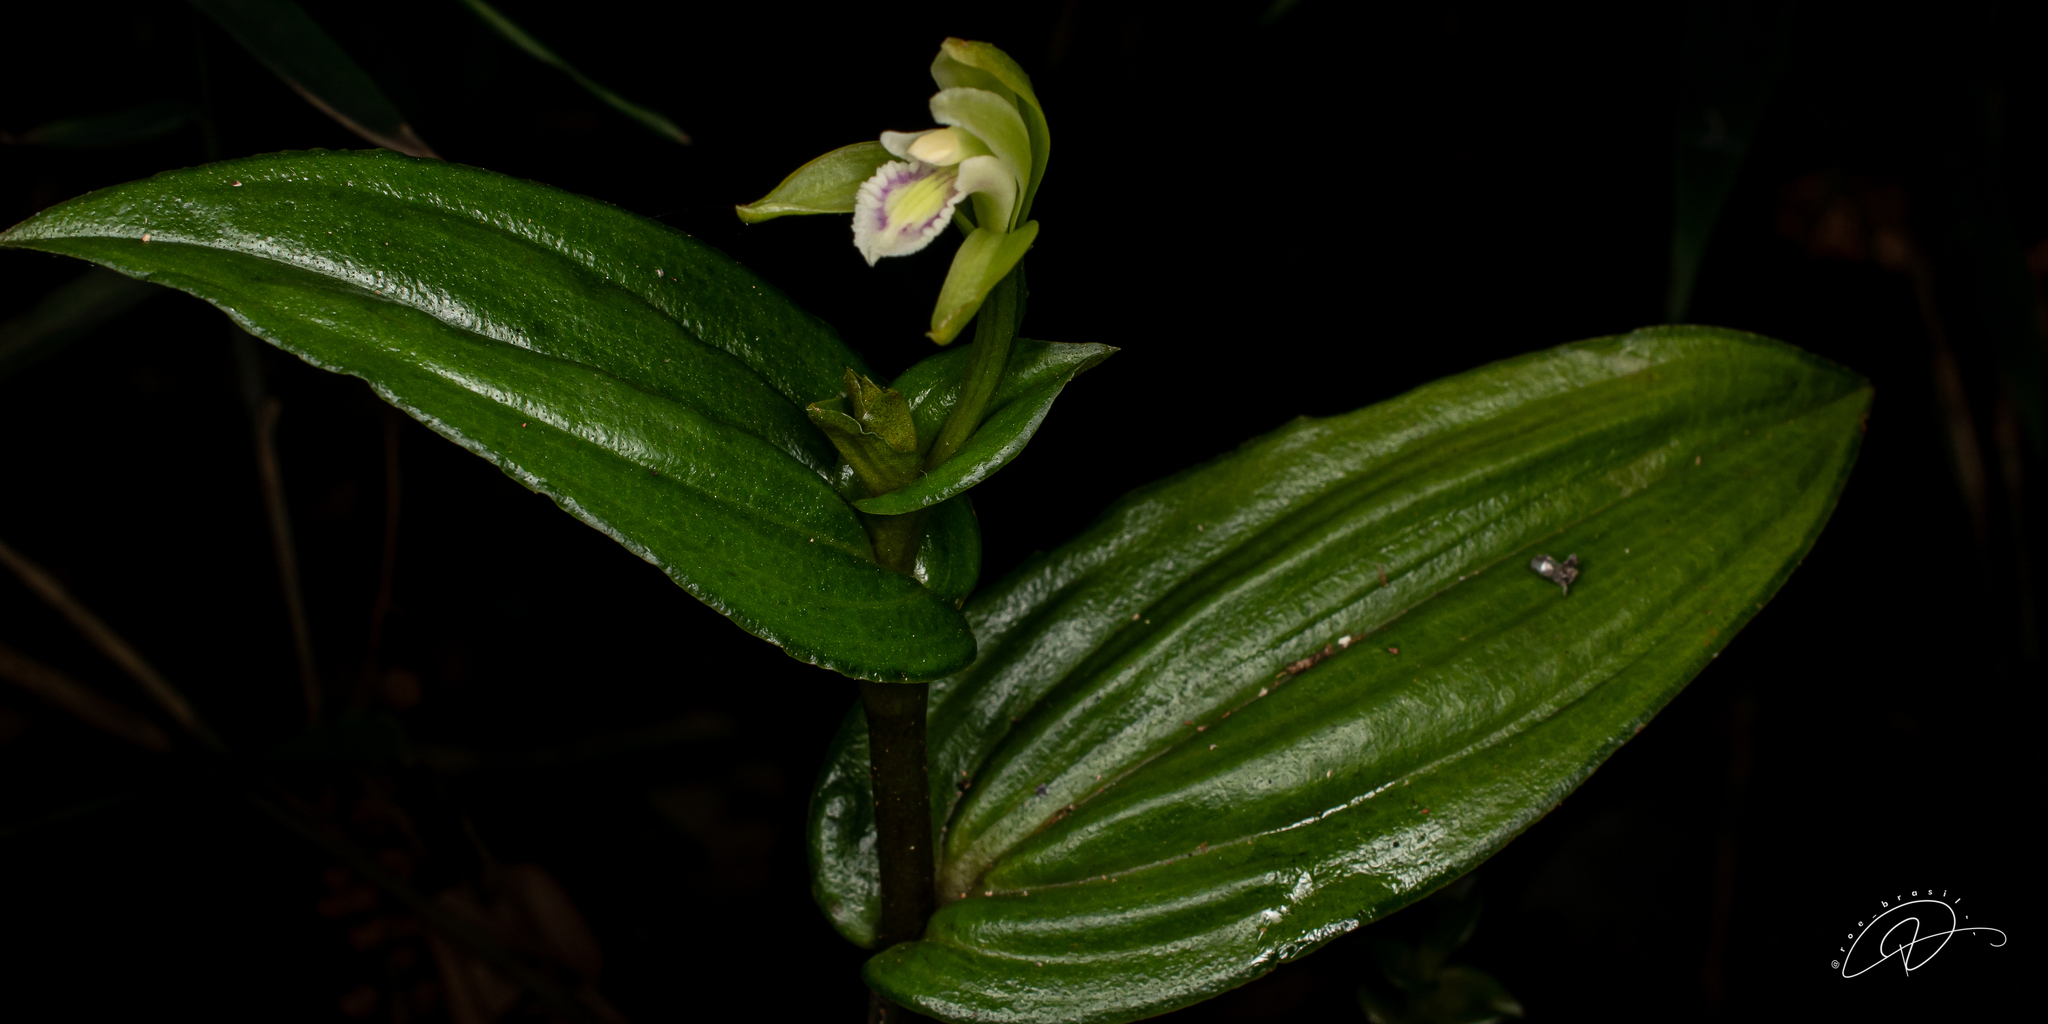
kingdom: Plantae
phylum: Tracheophyta
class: Liliopsida
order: Asparagales
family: Orchidaceae
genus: Psilochilus
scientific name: Psilochilus modestus
